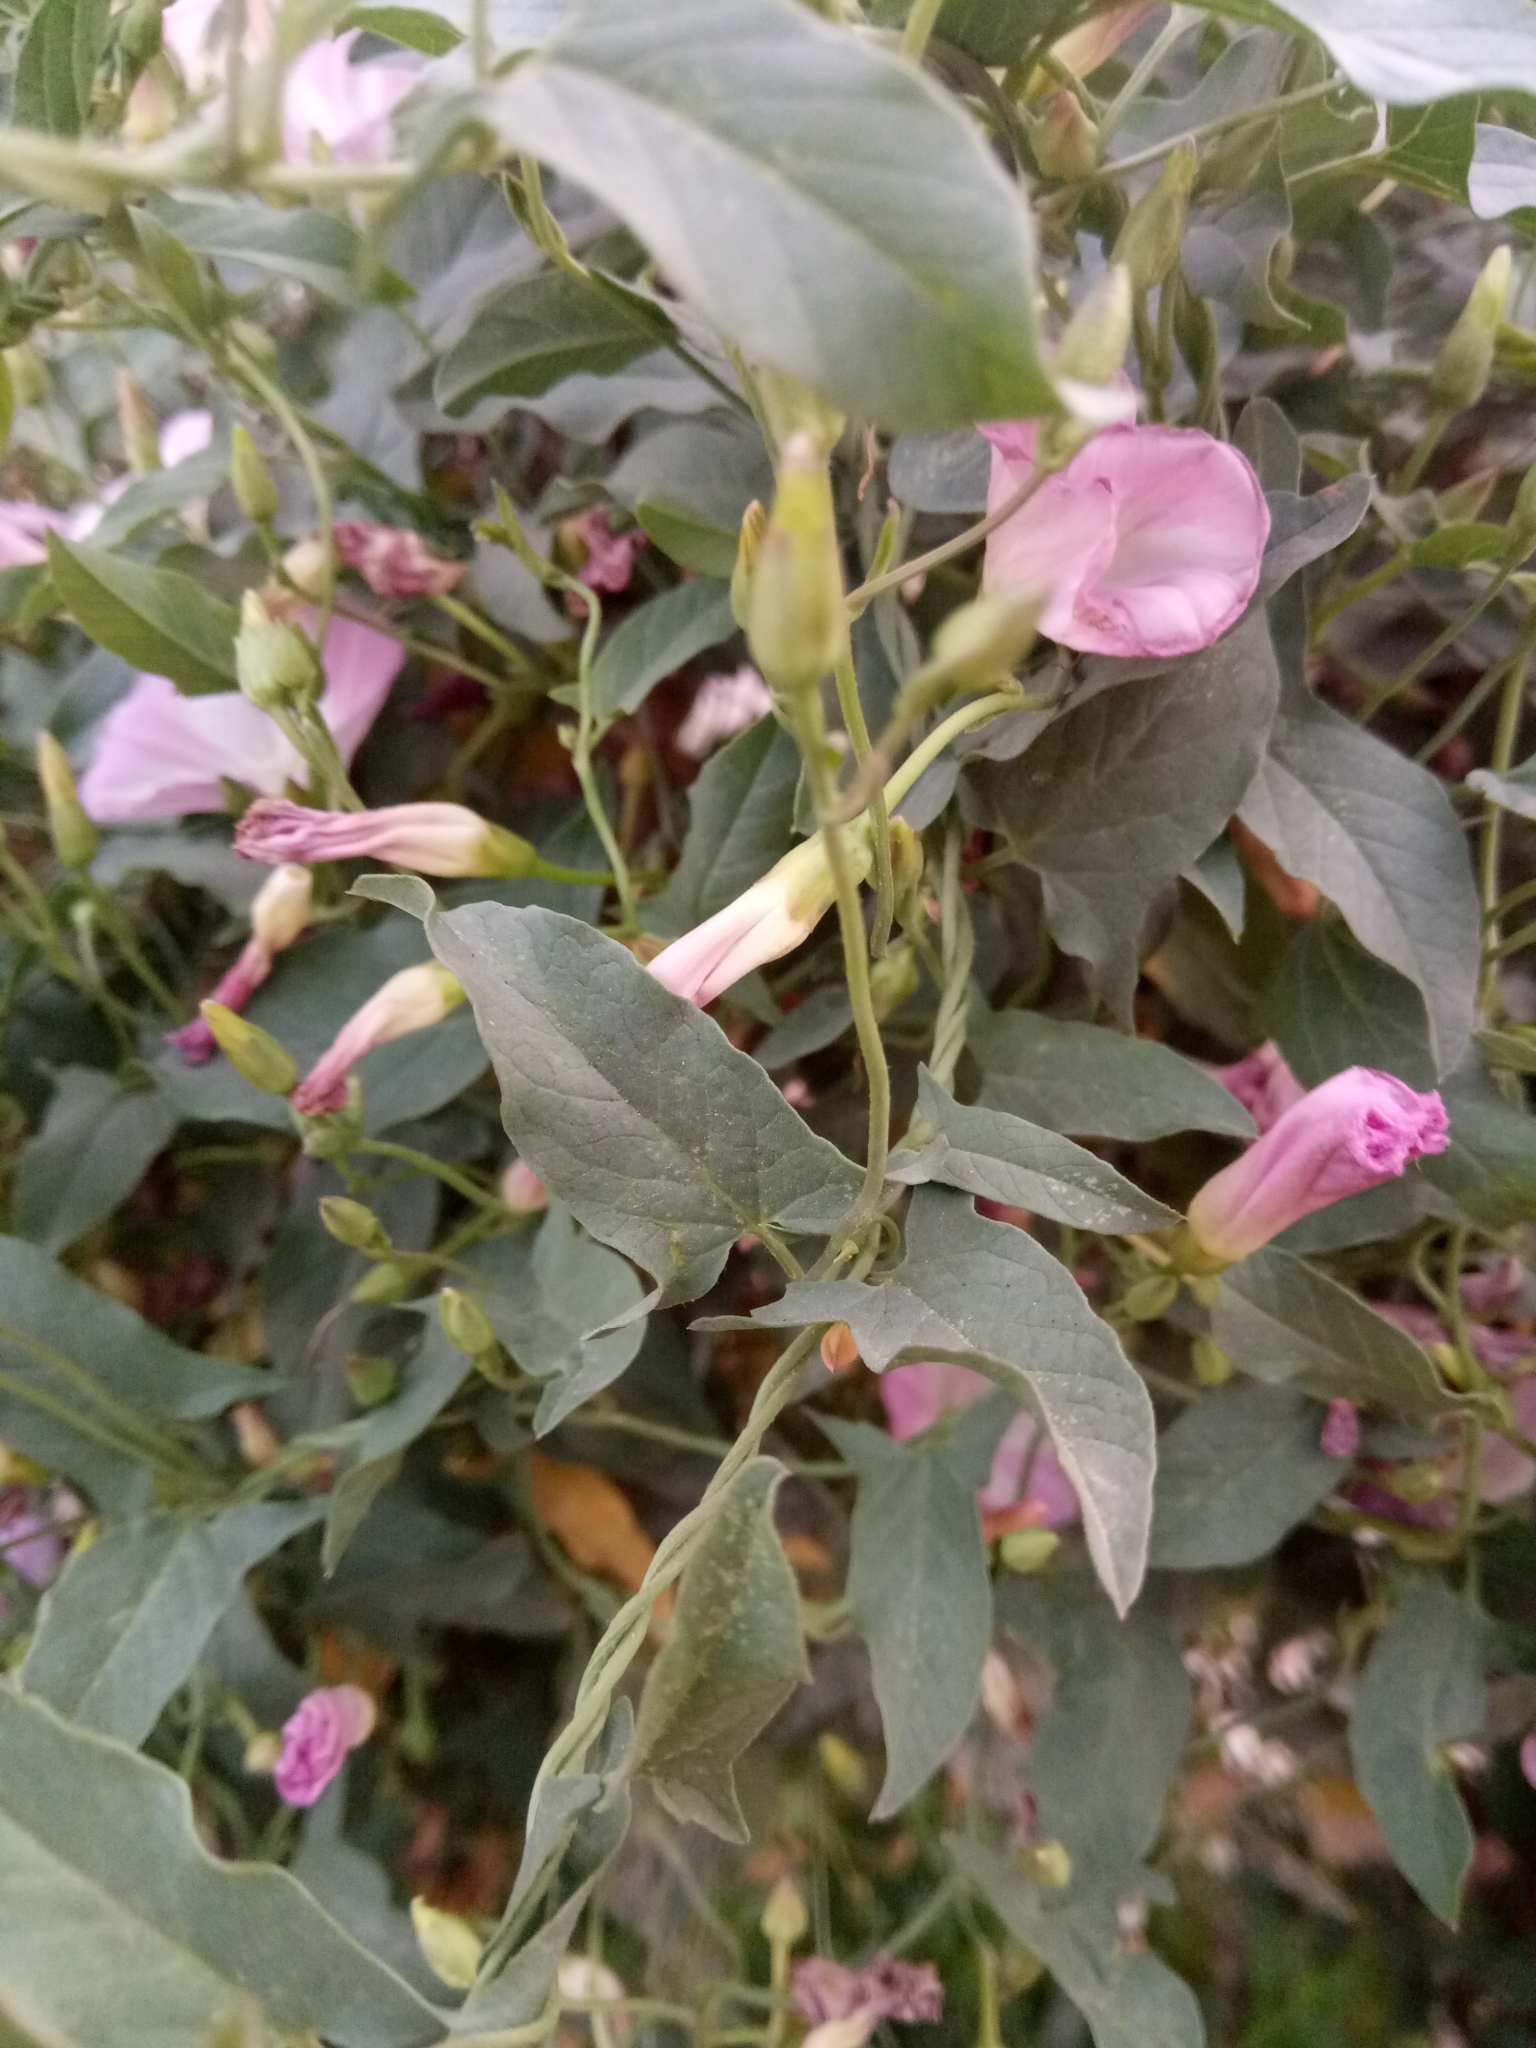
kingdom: Plantae
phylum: Tracheophyta
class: Magnoliopsida
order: Solanales
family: Convolvulaceae
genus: Convolvulus
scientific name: Convolvulus arvensis
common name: Field bindweed
